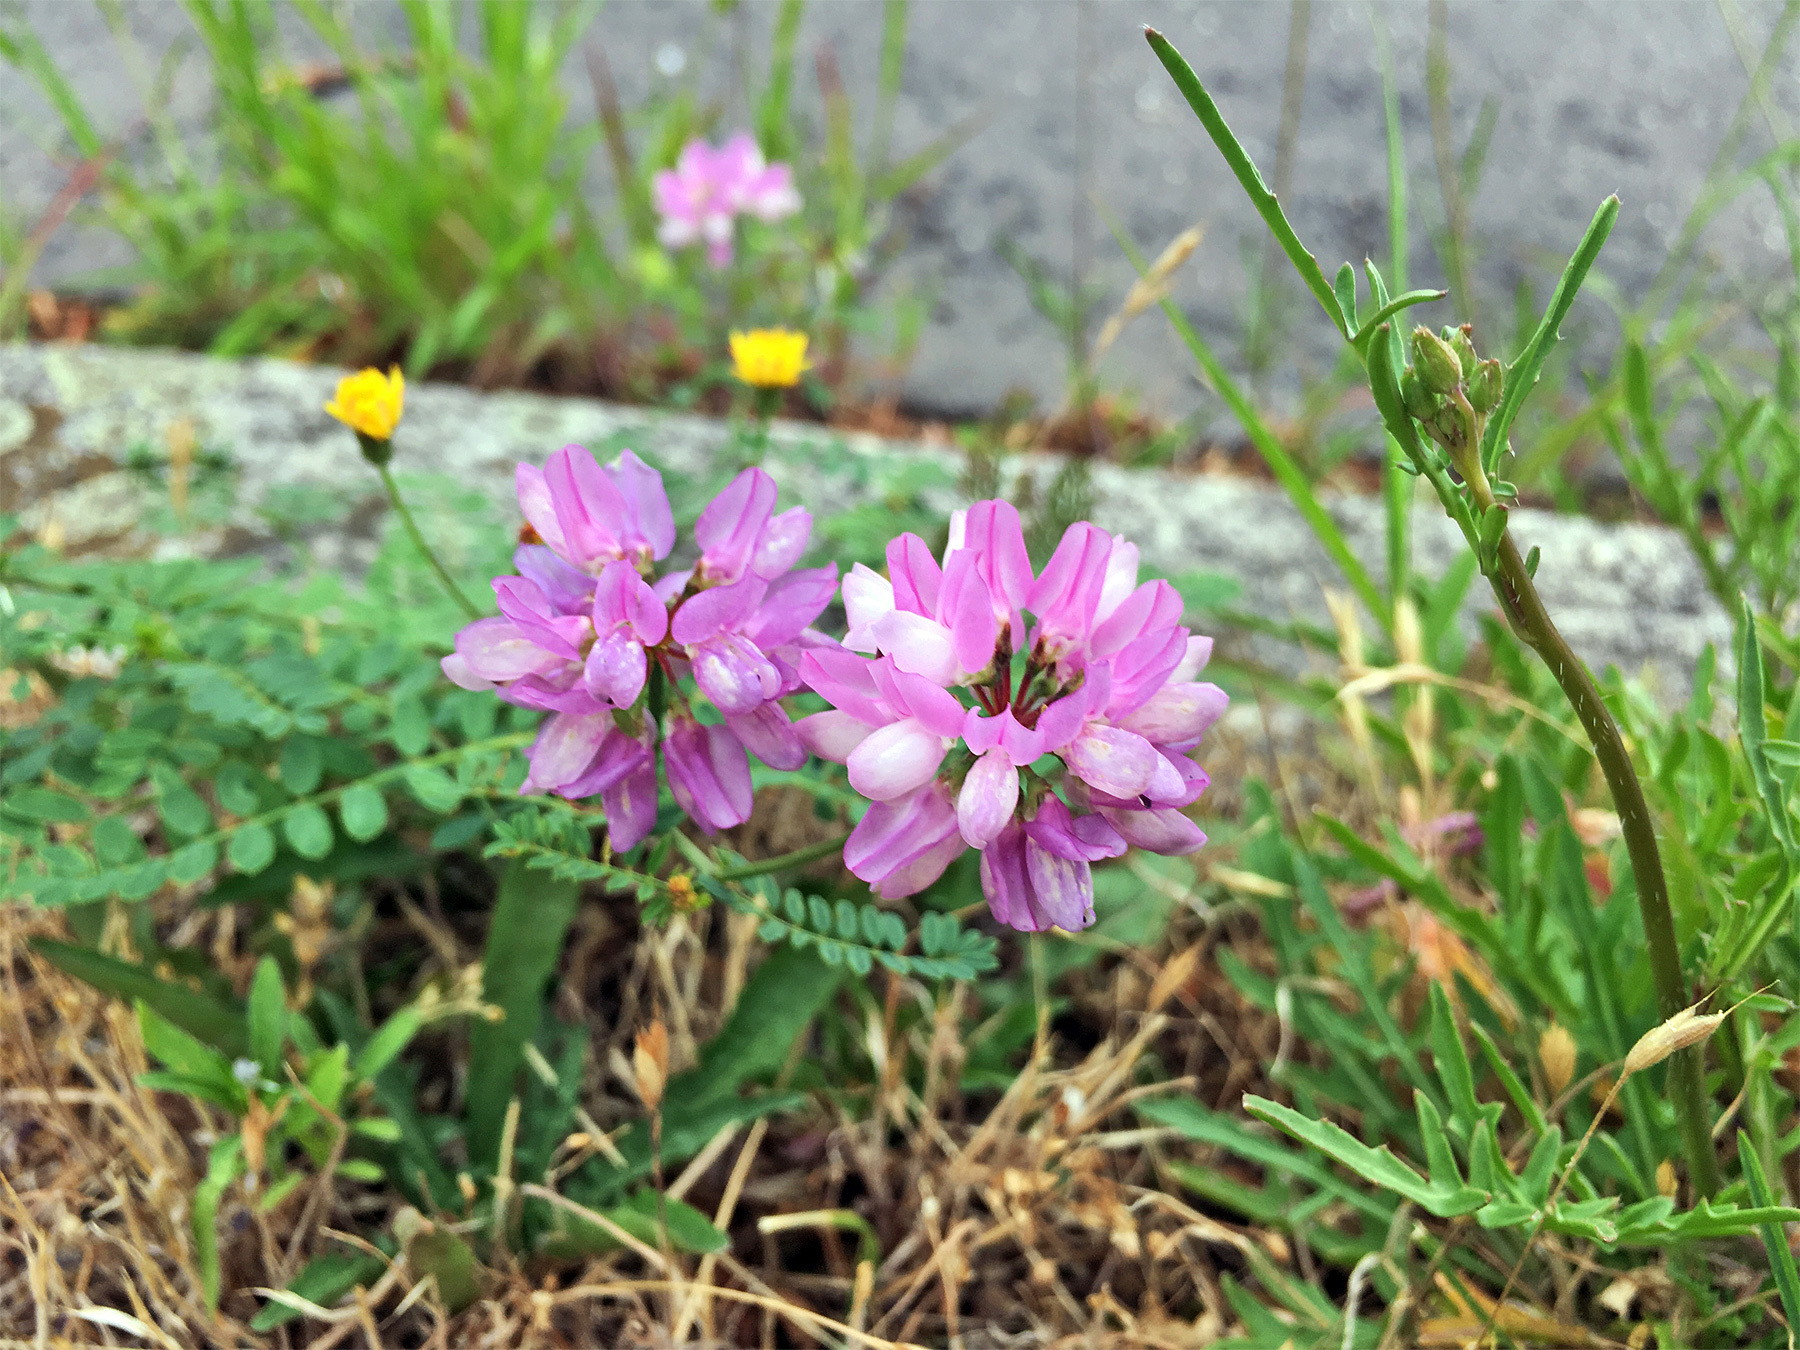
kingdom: Plantae
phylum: Tracheophyta
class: Magnoliopsida
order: Fabales
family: Fabaceae
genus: Coronilla
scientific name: Coronilla varia
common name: Crownvetch
